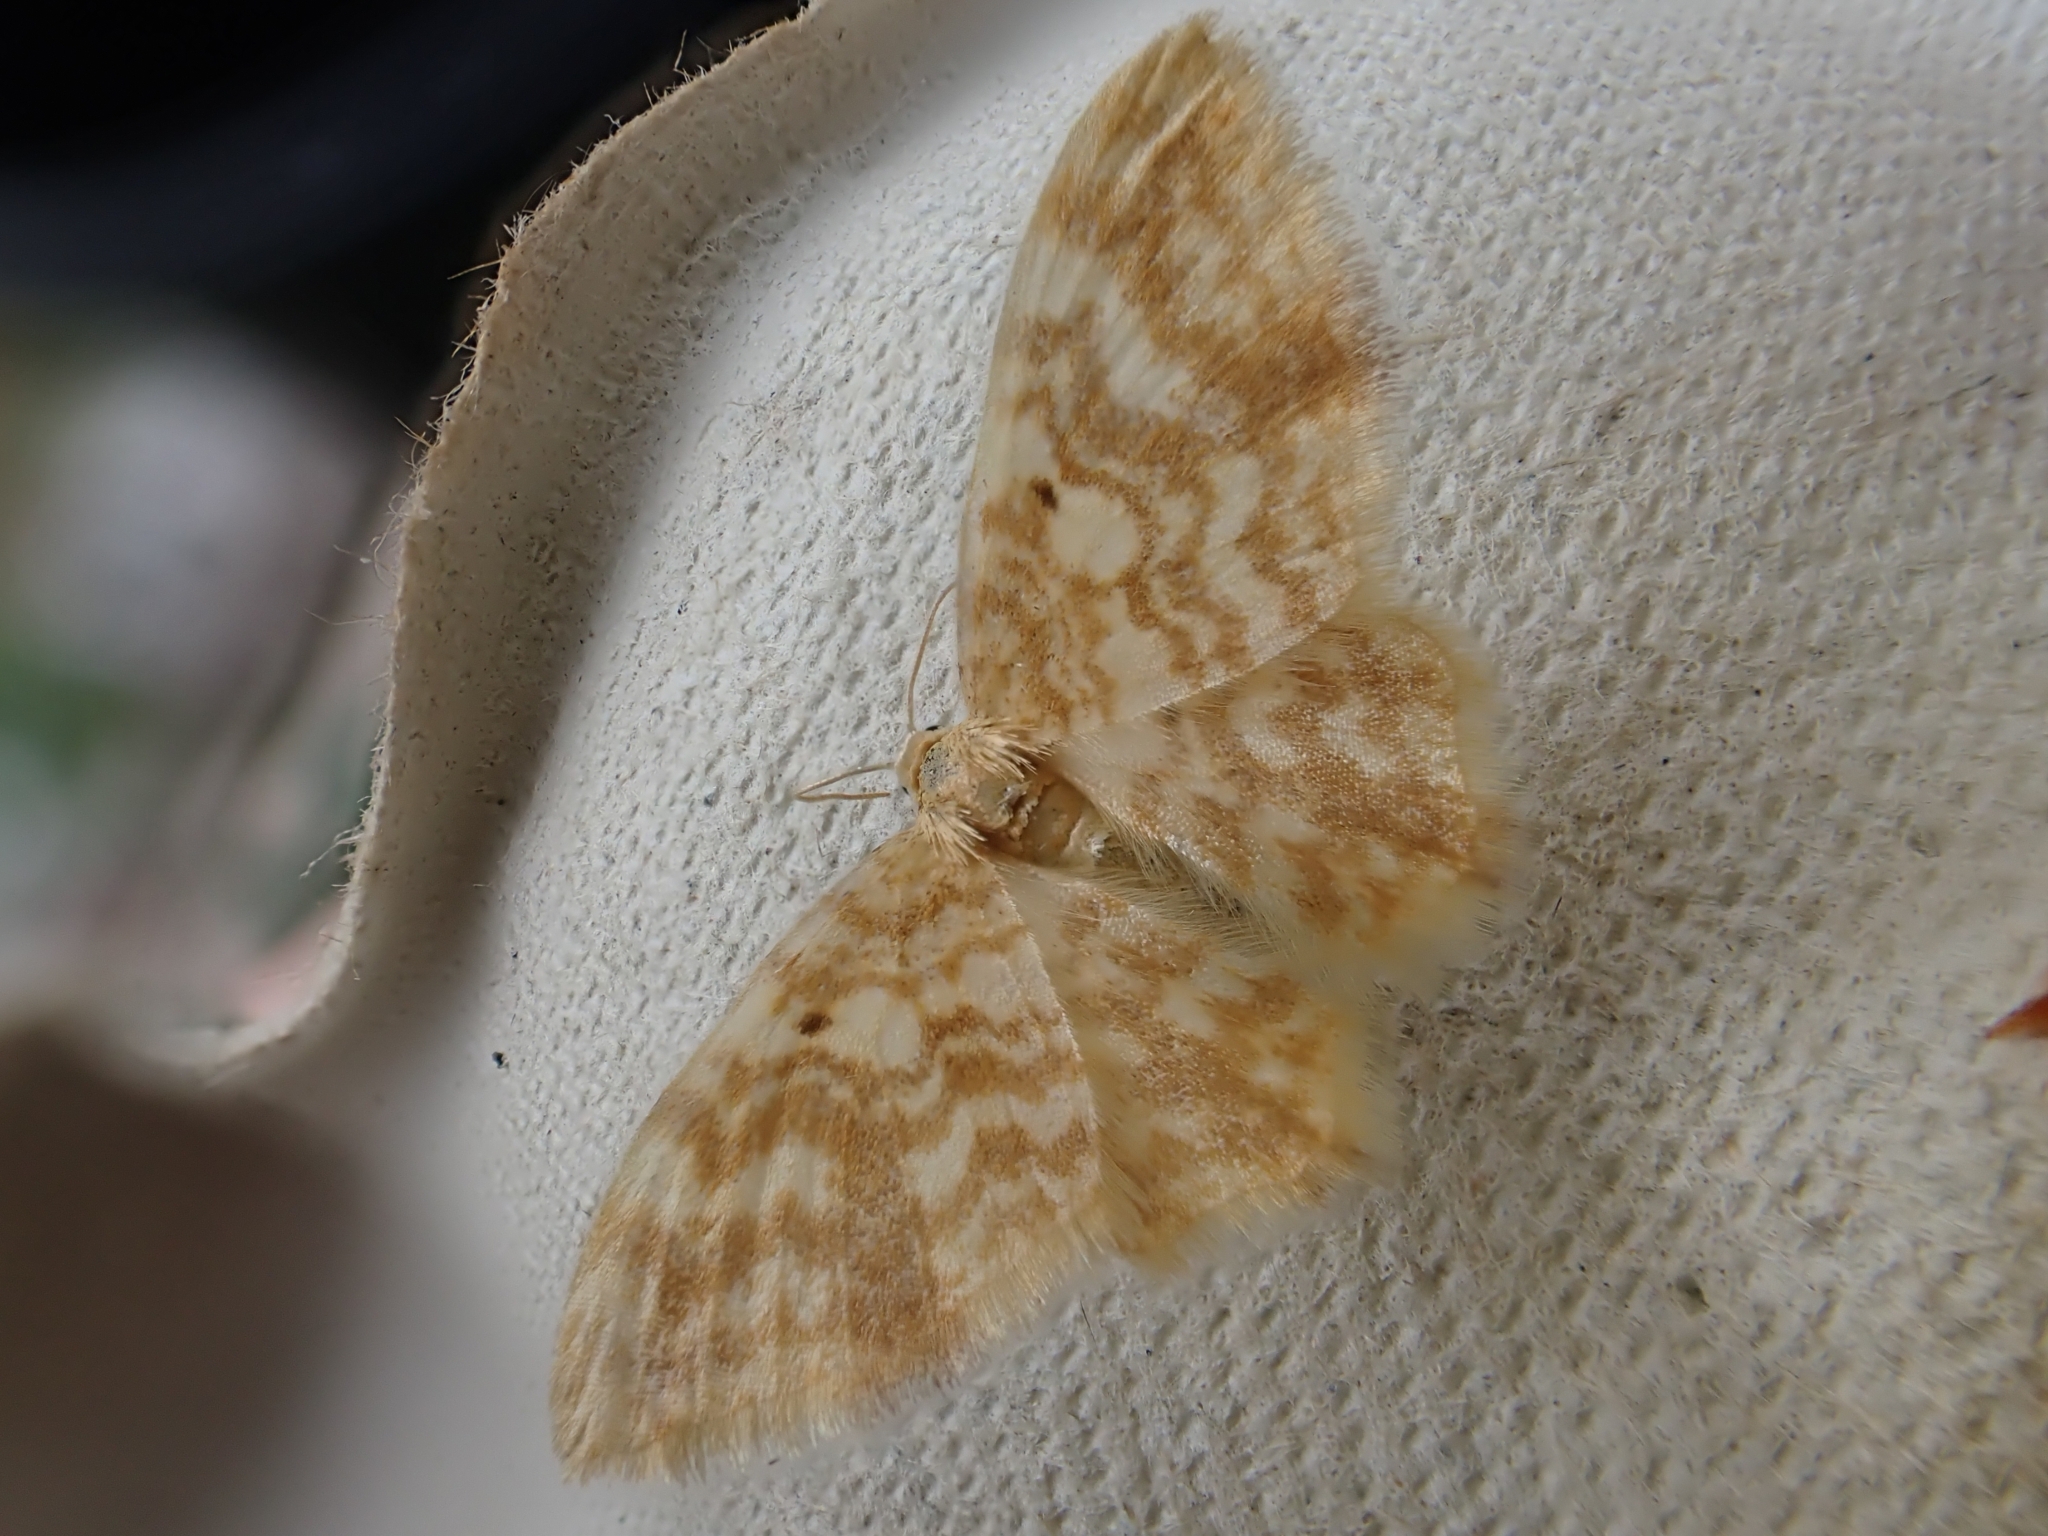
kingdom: Animalia
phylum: Arthropoda
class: Insecta
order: Lepidoptera
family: Geometridae
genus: Hydrelia
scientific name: Hydrelia flammeolaria
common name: Small yellow wave
